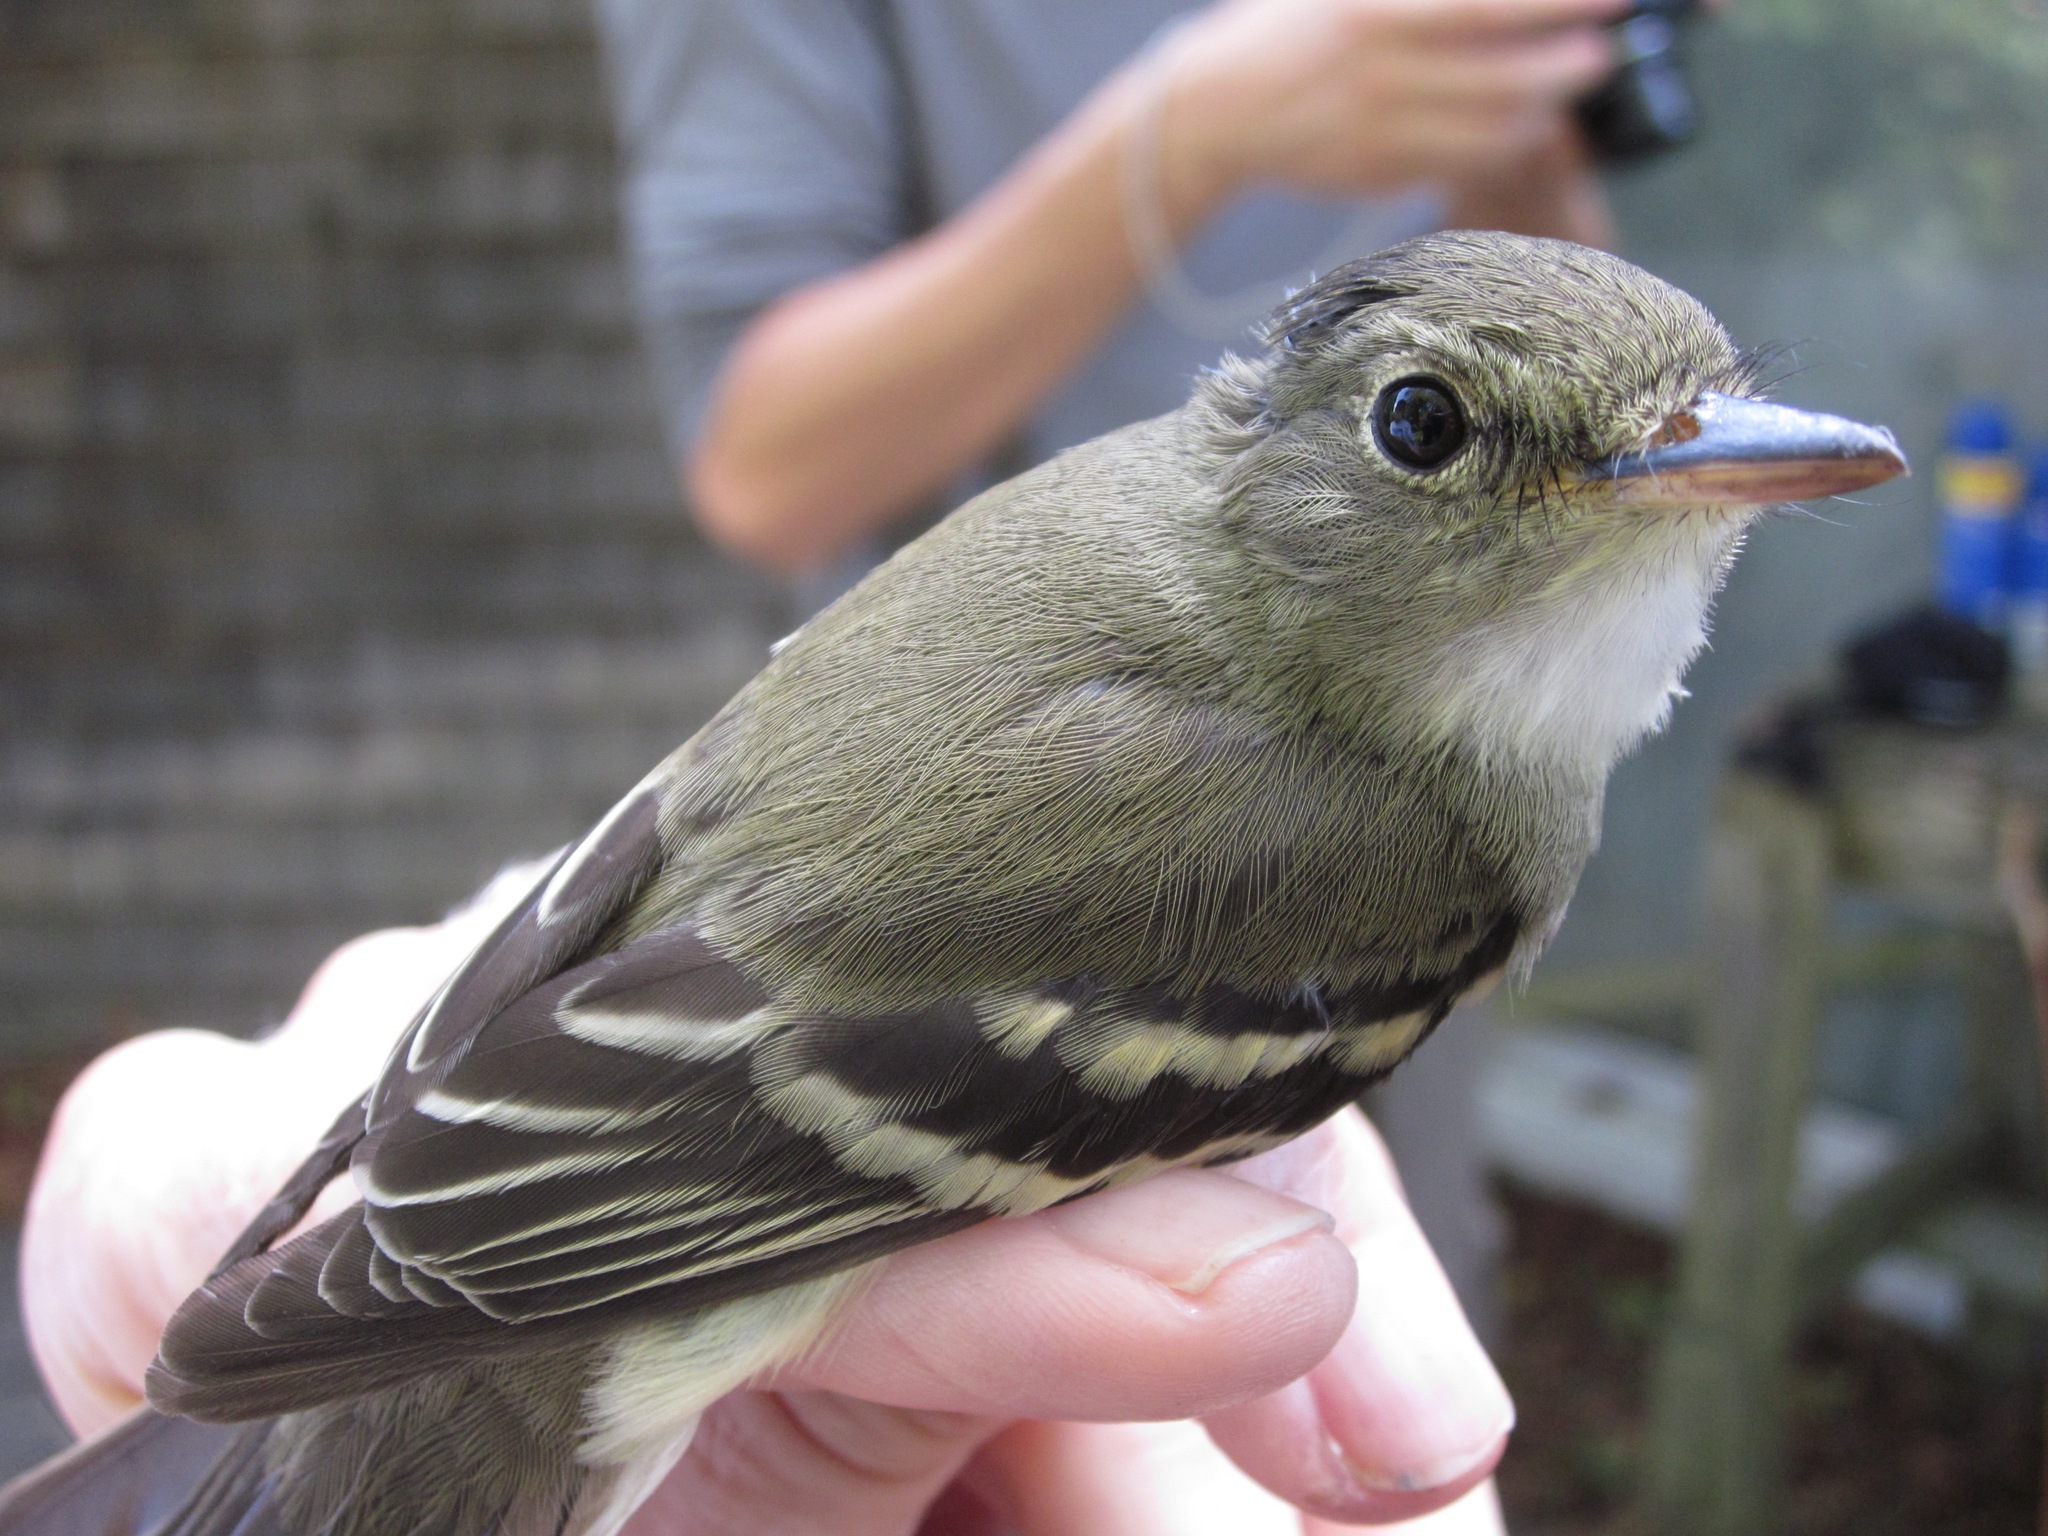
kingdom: Animalia
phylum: Chordata
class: Aves
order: Passeriformes
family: Tyrannidae
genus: Empidonax
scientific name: Empidonax alnorum
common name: Alder flycatcher
